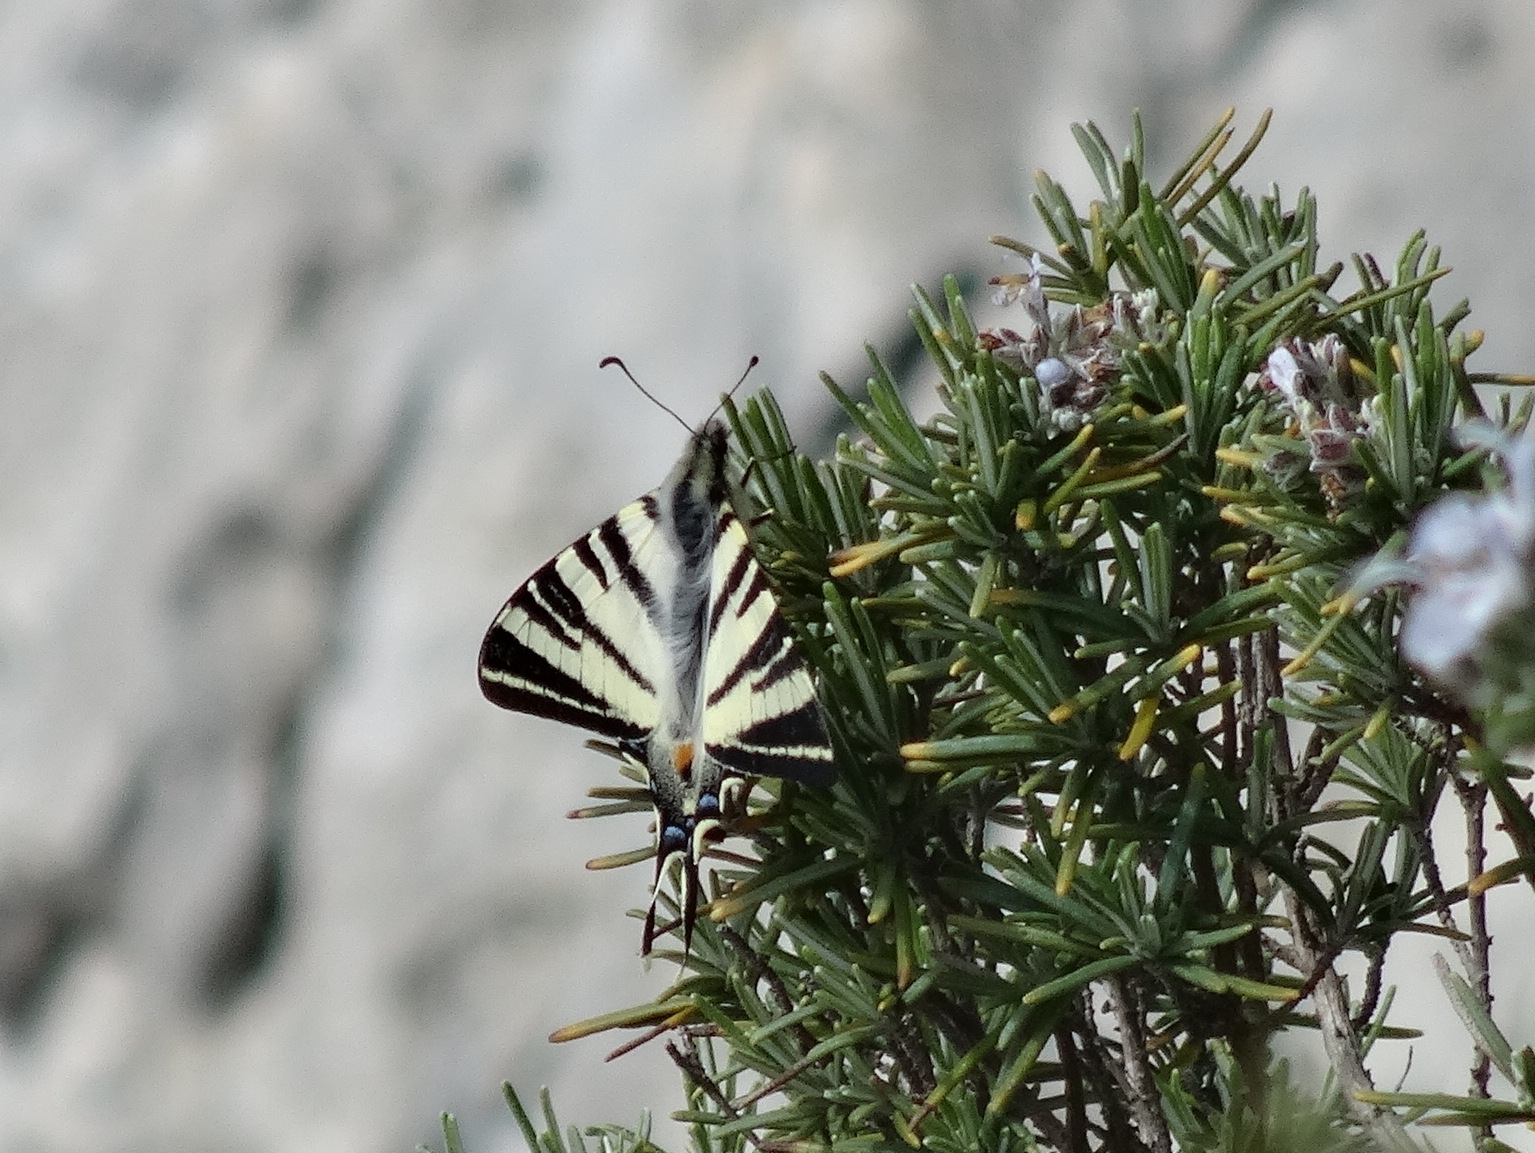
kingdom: Animalia
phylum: Arthropoda
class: Insecta
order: Lepidoptera
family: Papilionidae
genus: Iphiclides
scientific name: Iphiclides podalirius
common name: Scarce swallowtail
